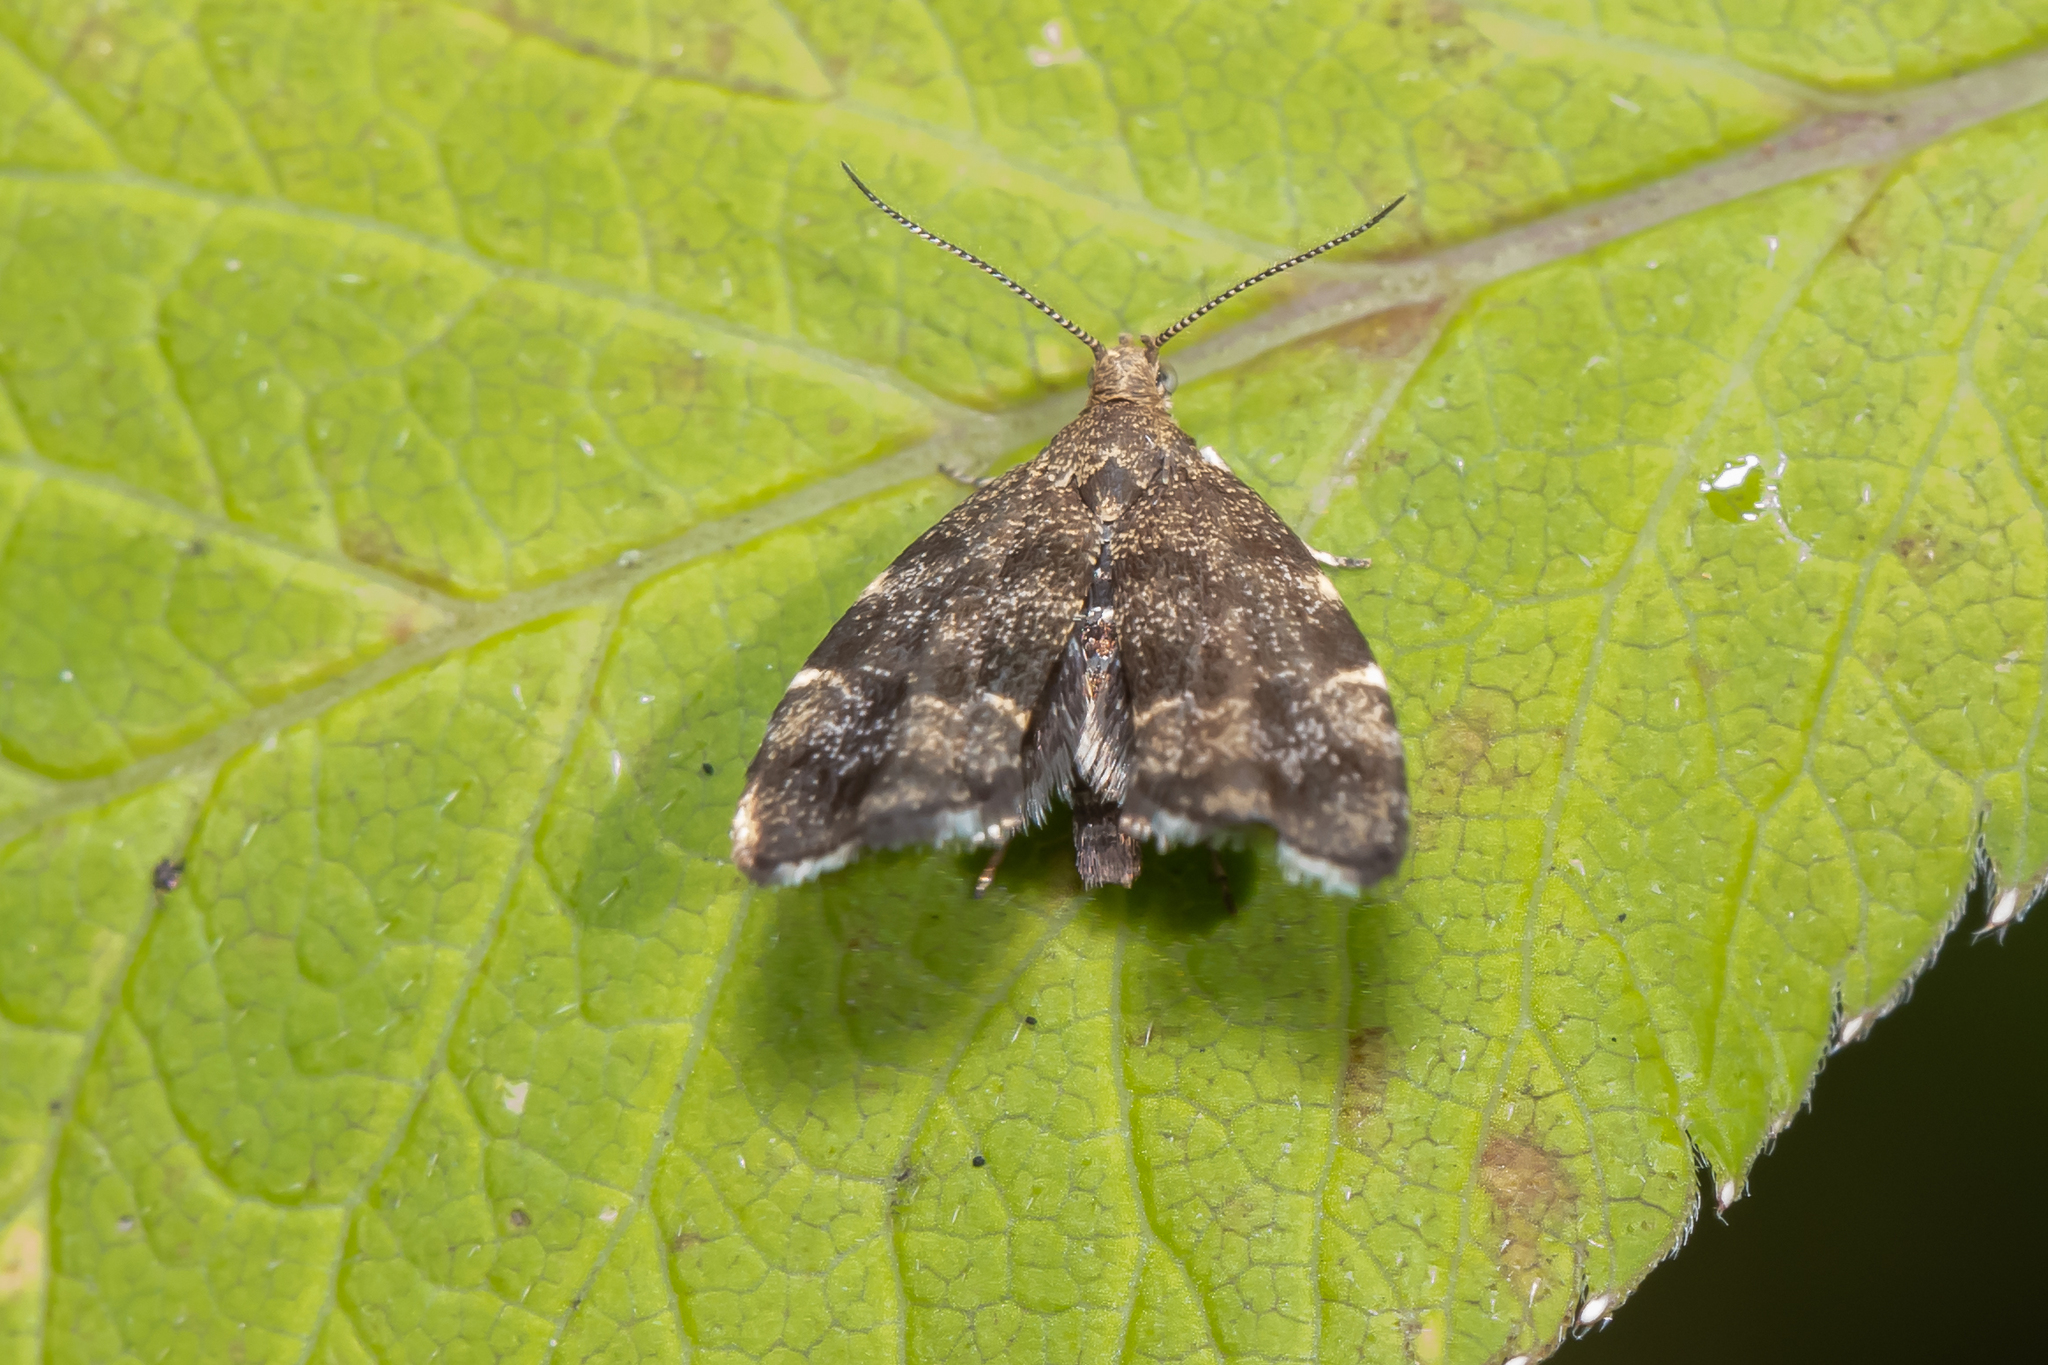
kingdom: Animalia
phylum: Arthropoda
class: Insecta
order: Lepidoptera
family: Choreutidae
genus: Anthophila
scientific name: Anthophila fabriciana
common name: Nettle-tap
